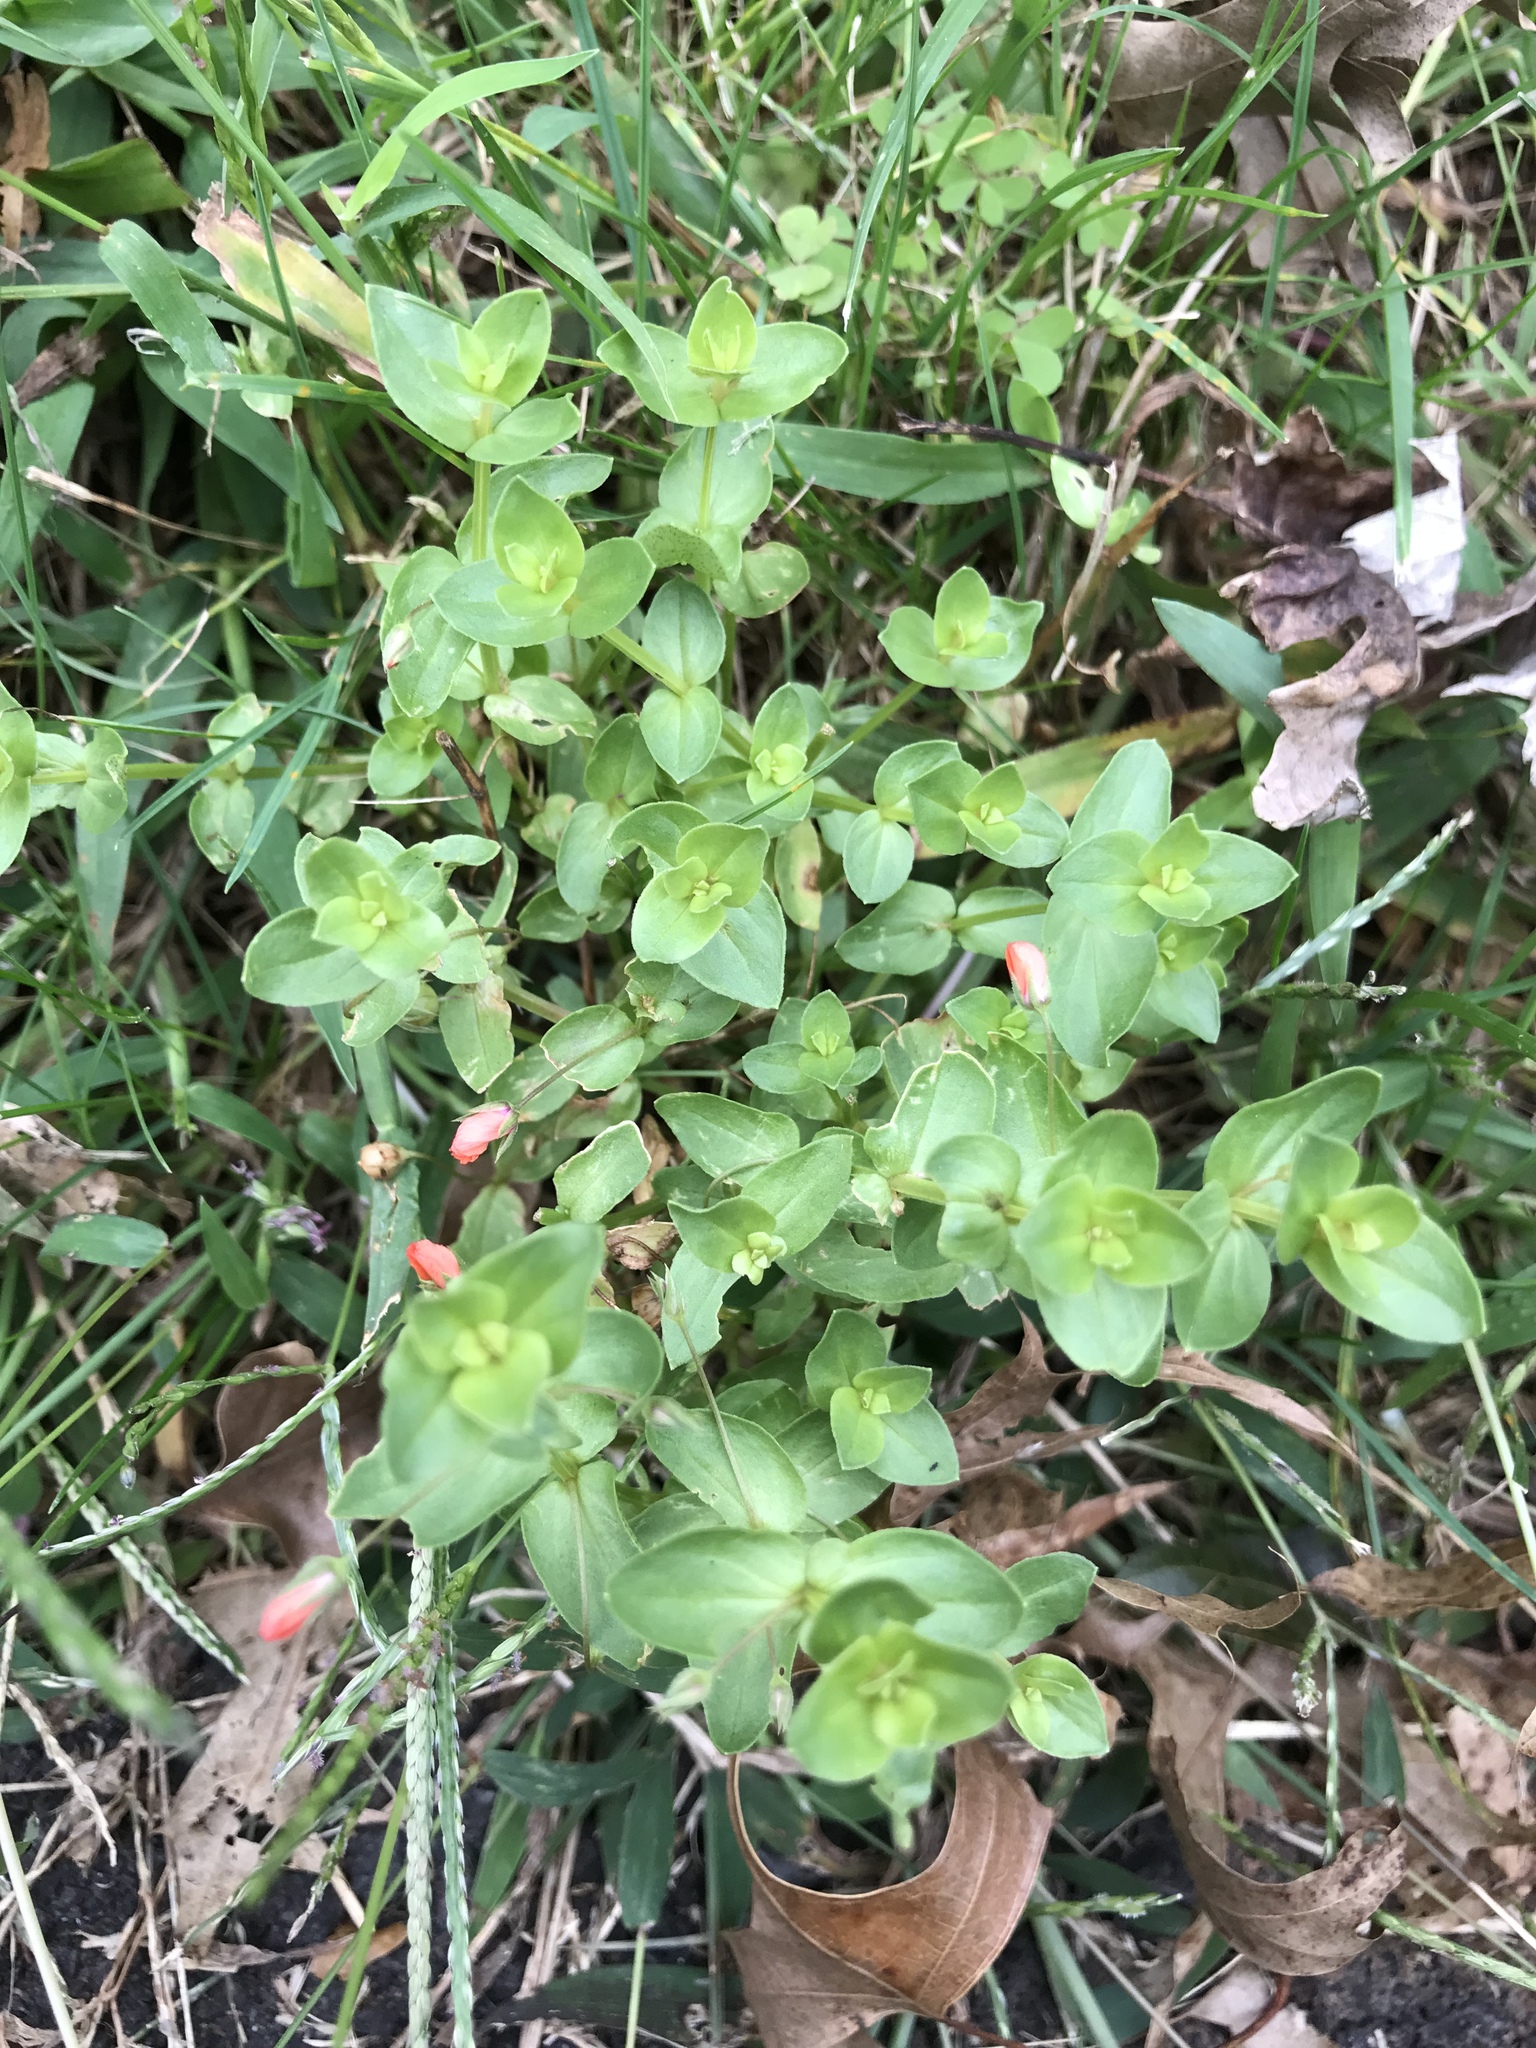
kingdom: Plantae
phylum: Tracheophyta
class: Magnoliopsida
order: Ericales
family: Primulaceae
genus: Lysimachia
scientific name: Lysimachia arvensis
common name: Scarlet pimpernel
